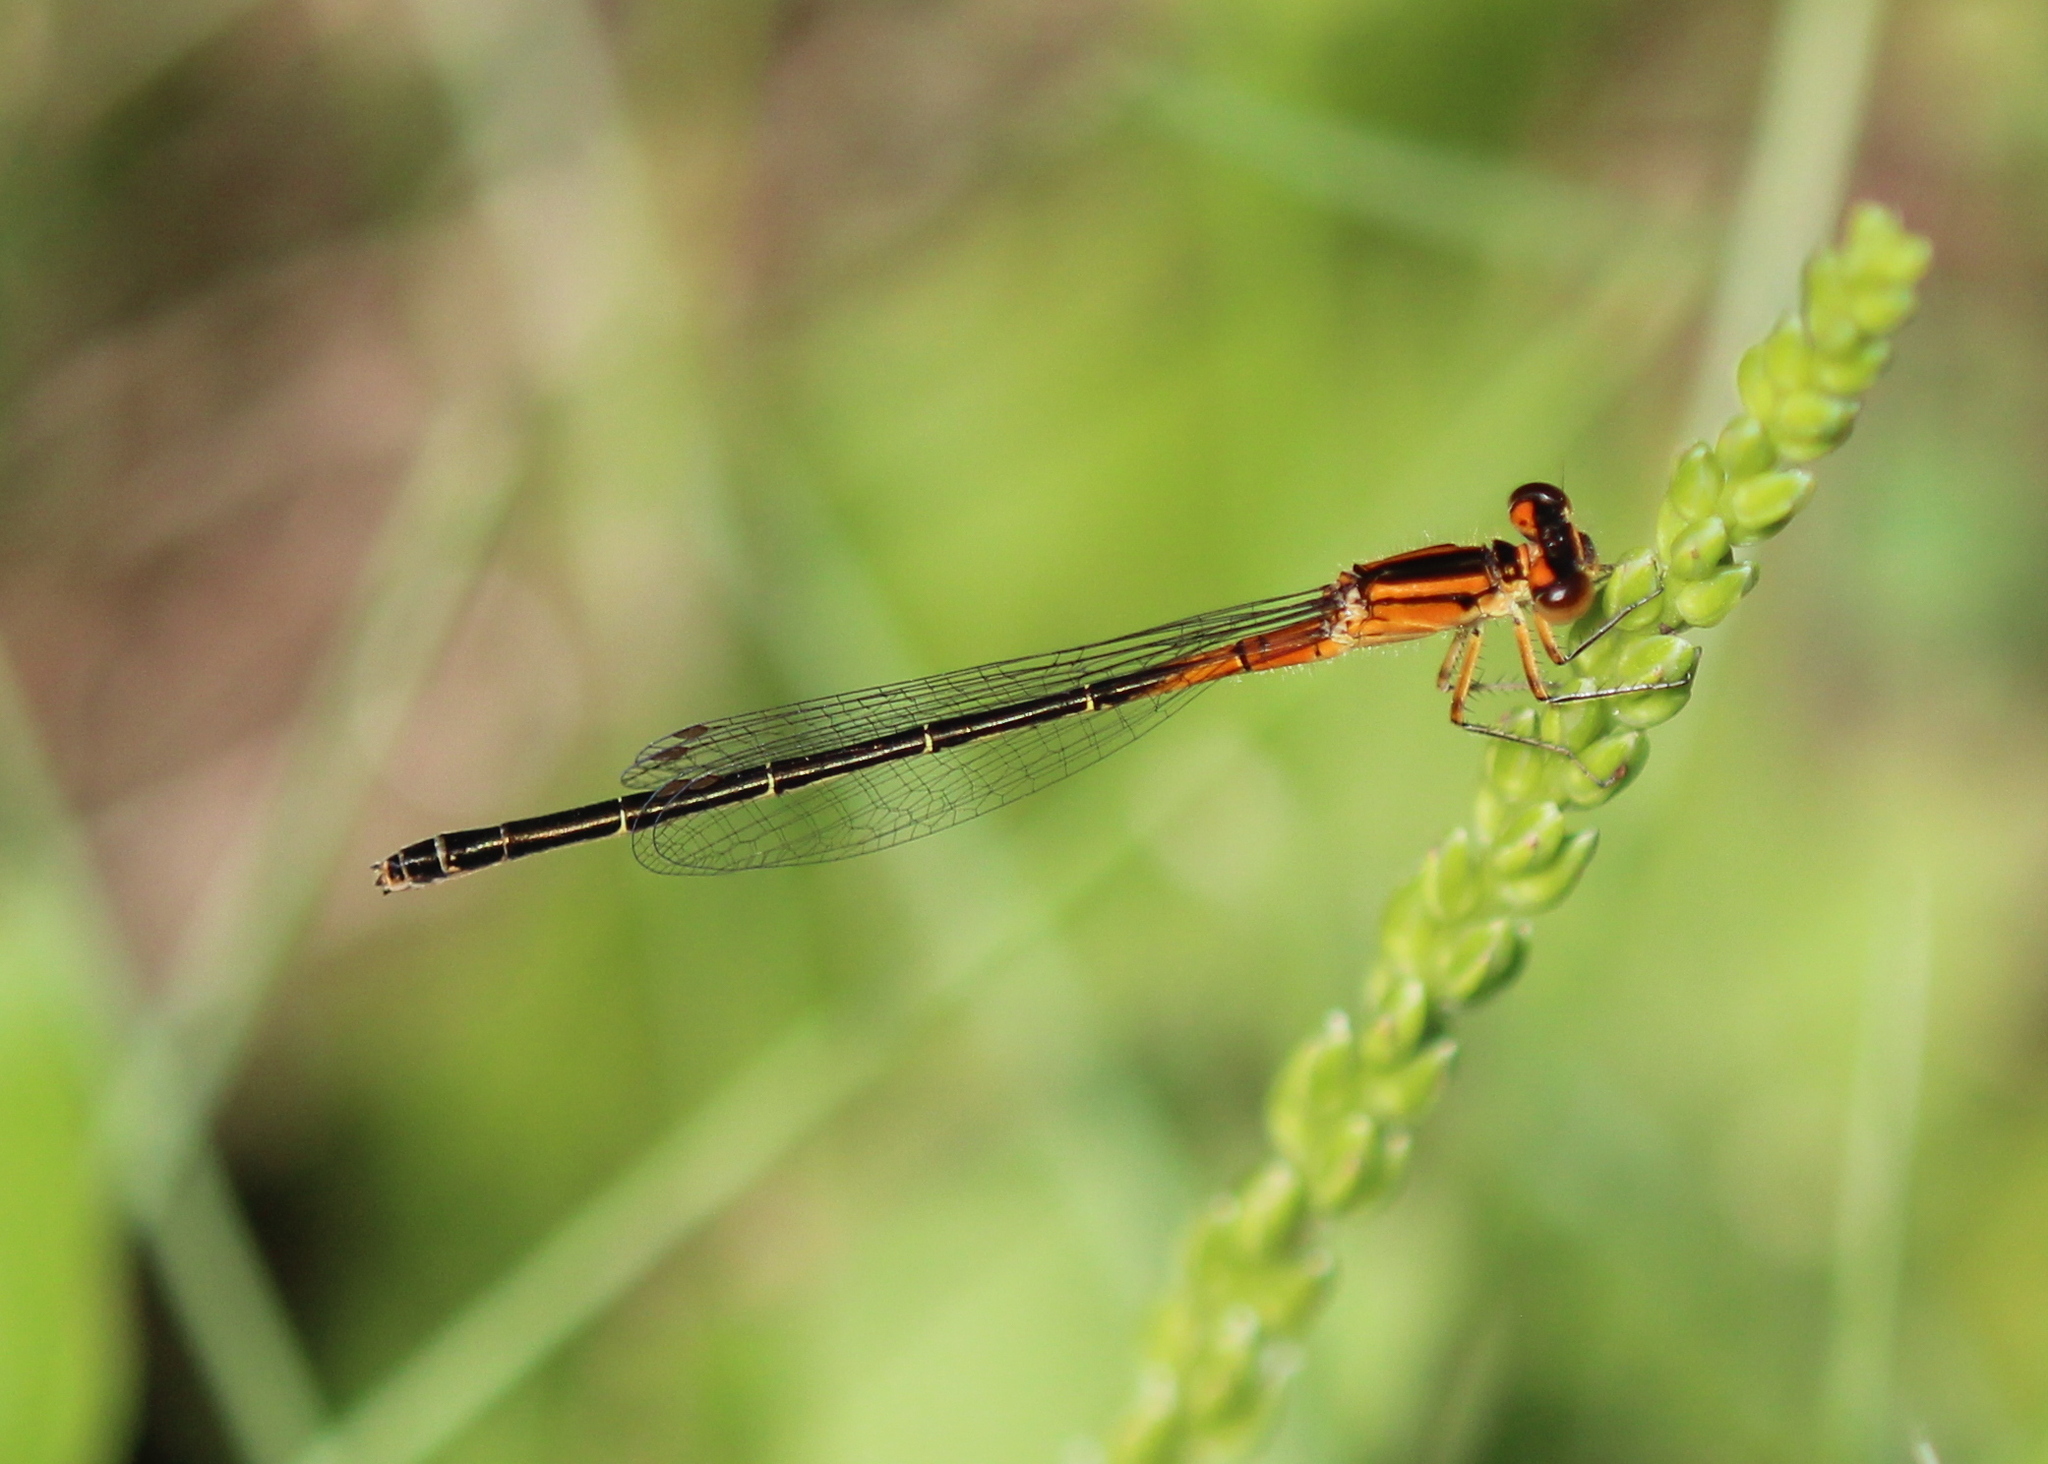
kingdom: Animalia
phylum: Arthropoda
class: Insecta
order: Odonata
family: Coenagrionidae
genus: Ischnura
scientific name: Ischnura verticalis
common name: Eastern forktail
